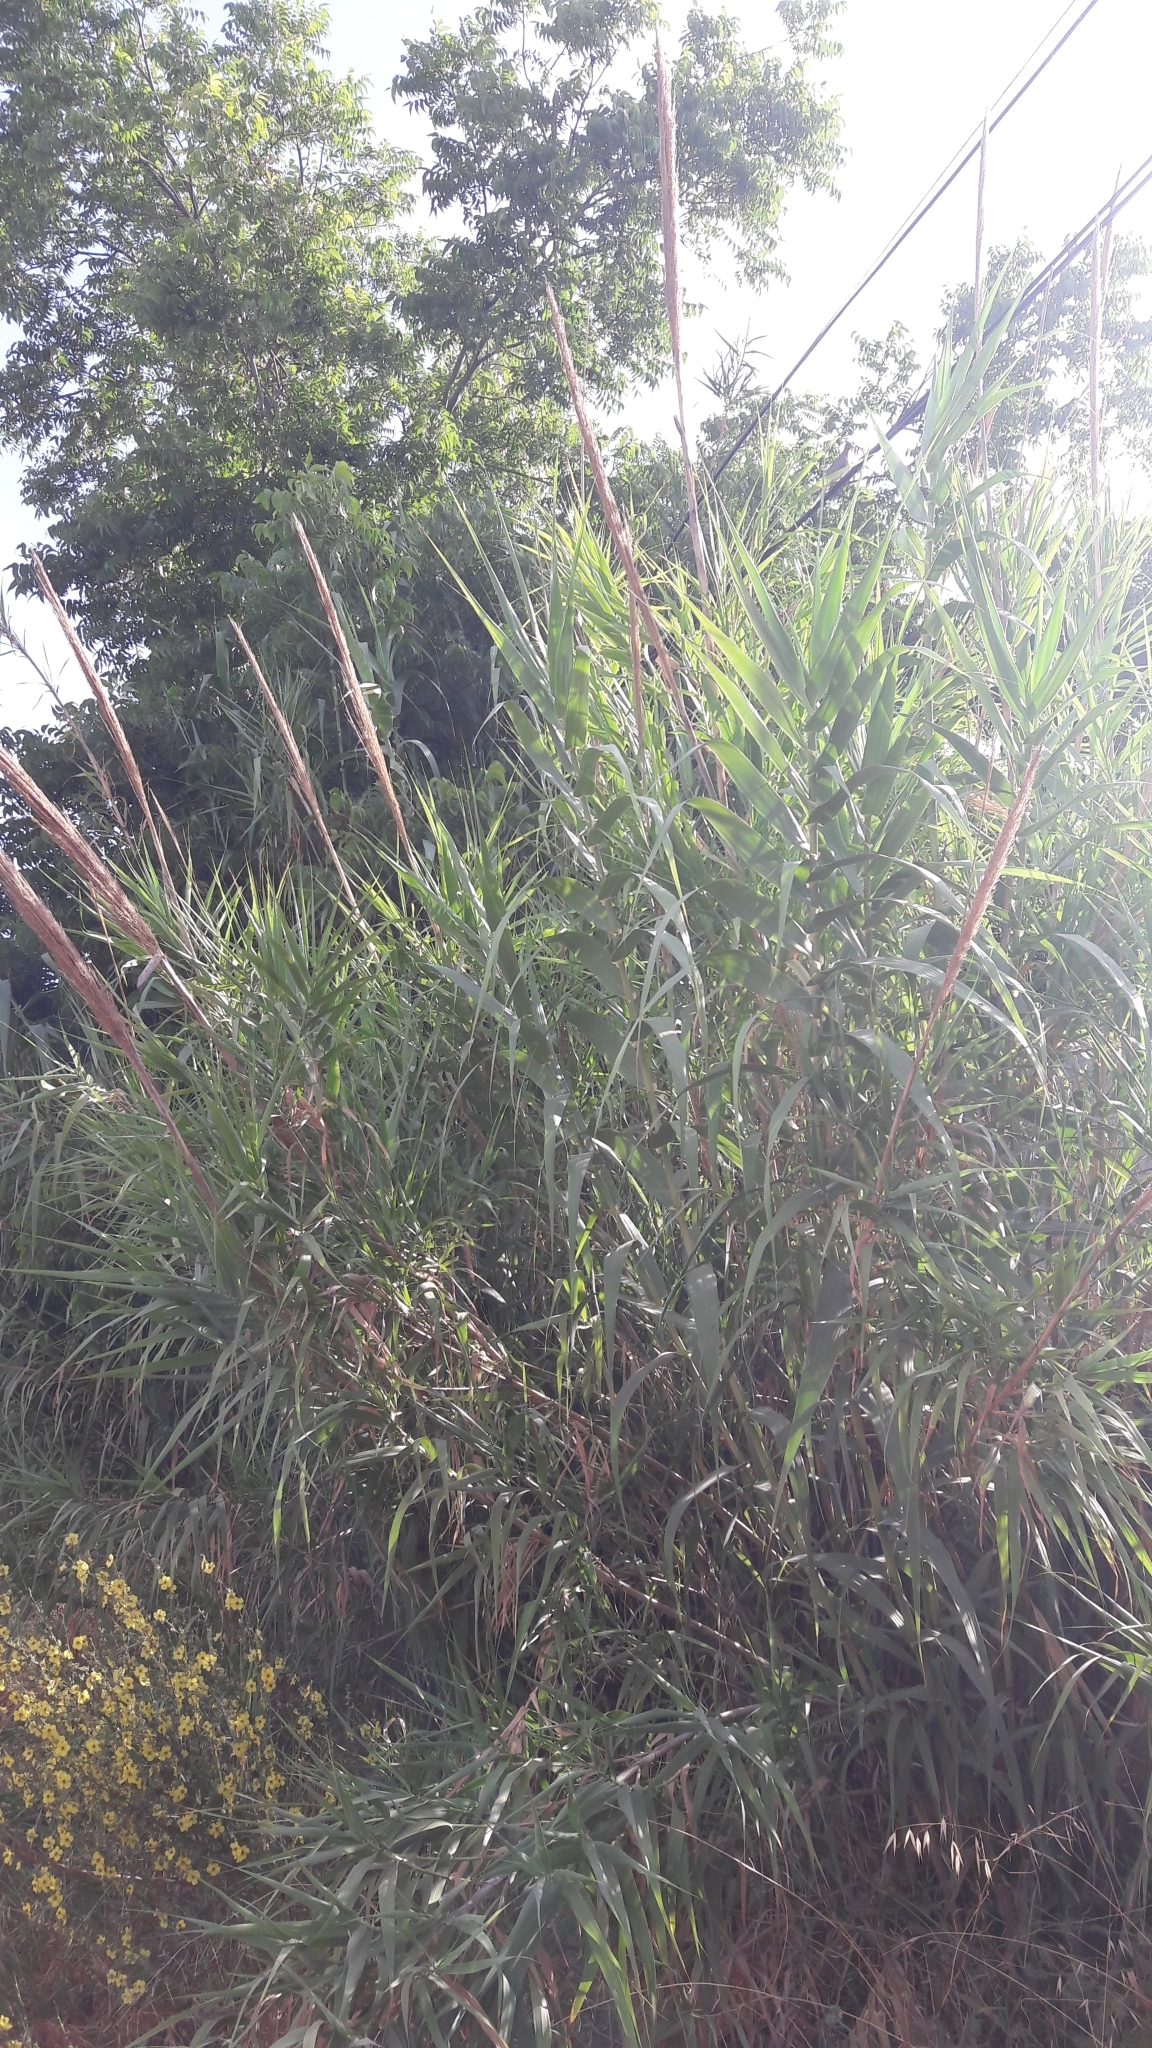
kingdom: Plantae
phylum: Tracheophyta
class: Liliopsida
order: Poales
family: Poaceae
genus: Phragmites
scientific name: Phragmites australis
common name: Common reed
